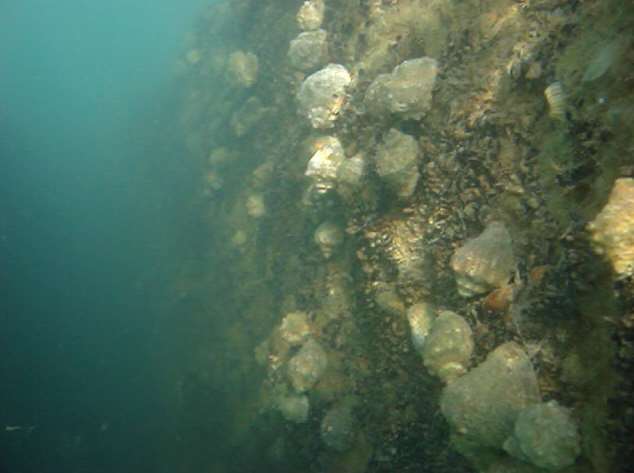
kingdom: Animalia
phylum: Mollusca
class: Gastropoda
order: Neogastropoda
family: Muricidae
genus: Rapana
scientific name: Rapana venosa
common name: Veined rapa whelk
